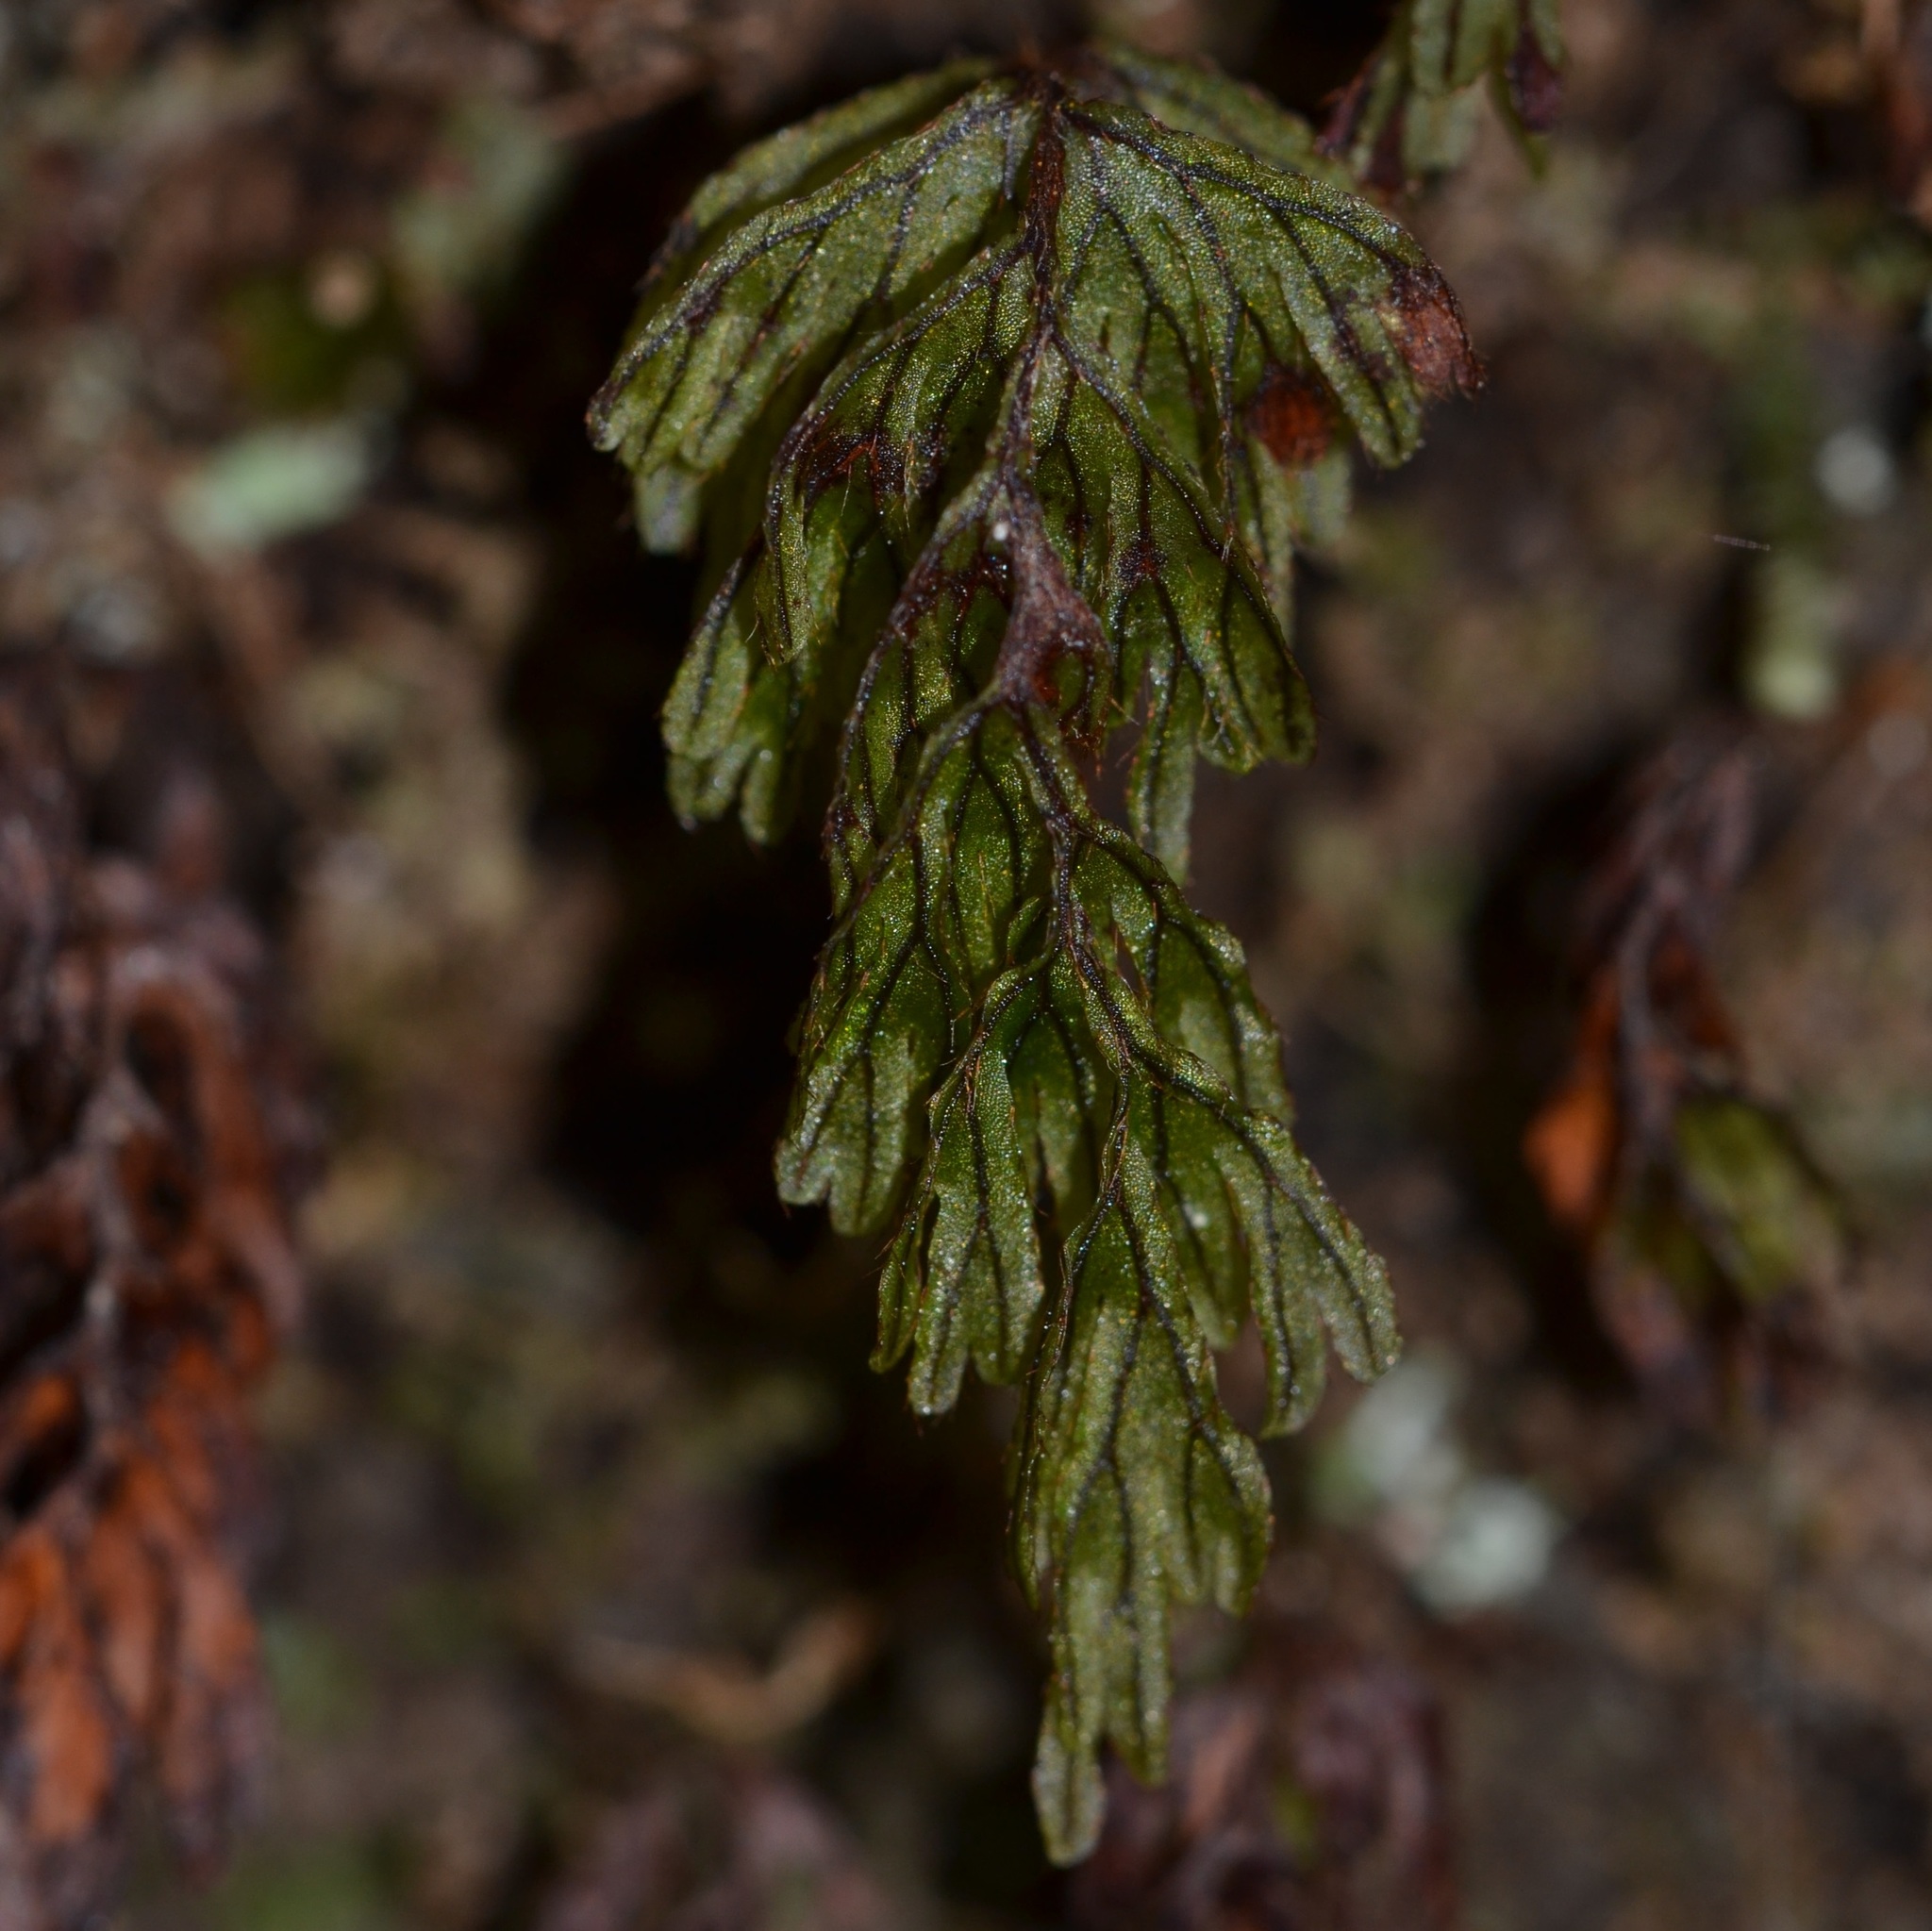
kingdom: Plantae
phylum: Tracheophyta
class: Polypodiopsida
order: Hymenophyllales
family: Hymenophyllaceae
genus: Hymenophyllum
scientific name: Hymenophyllum lanceolatum
